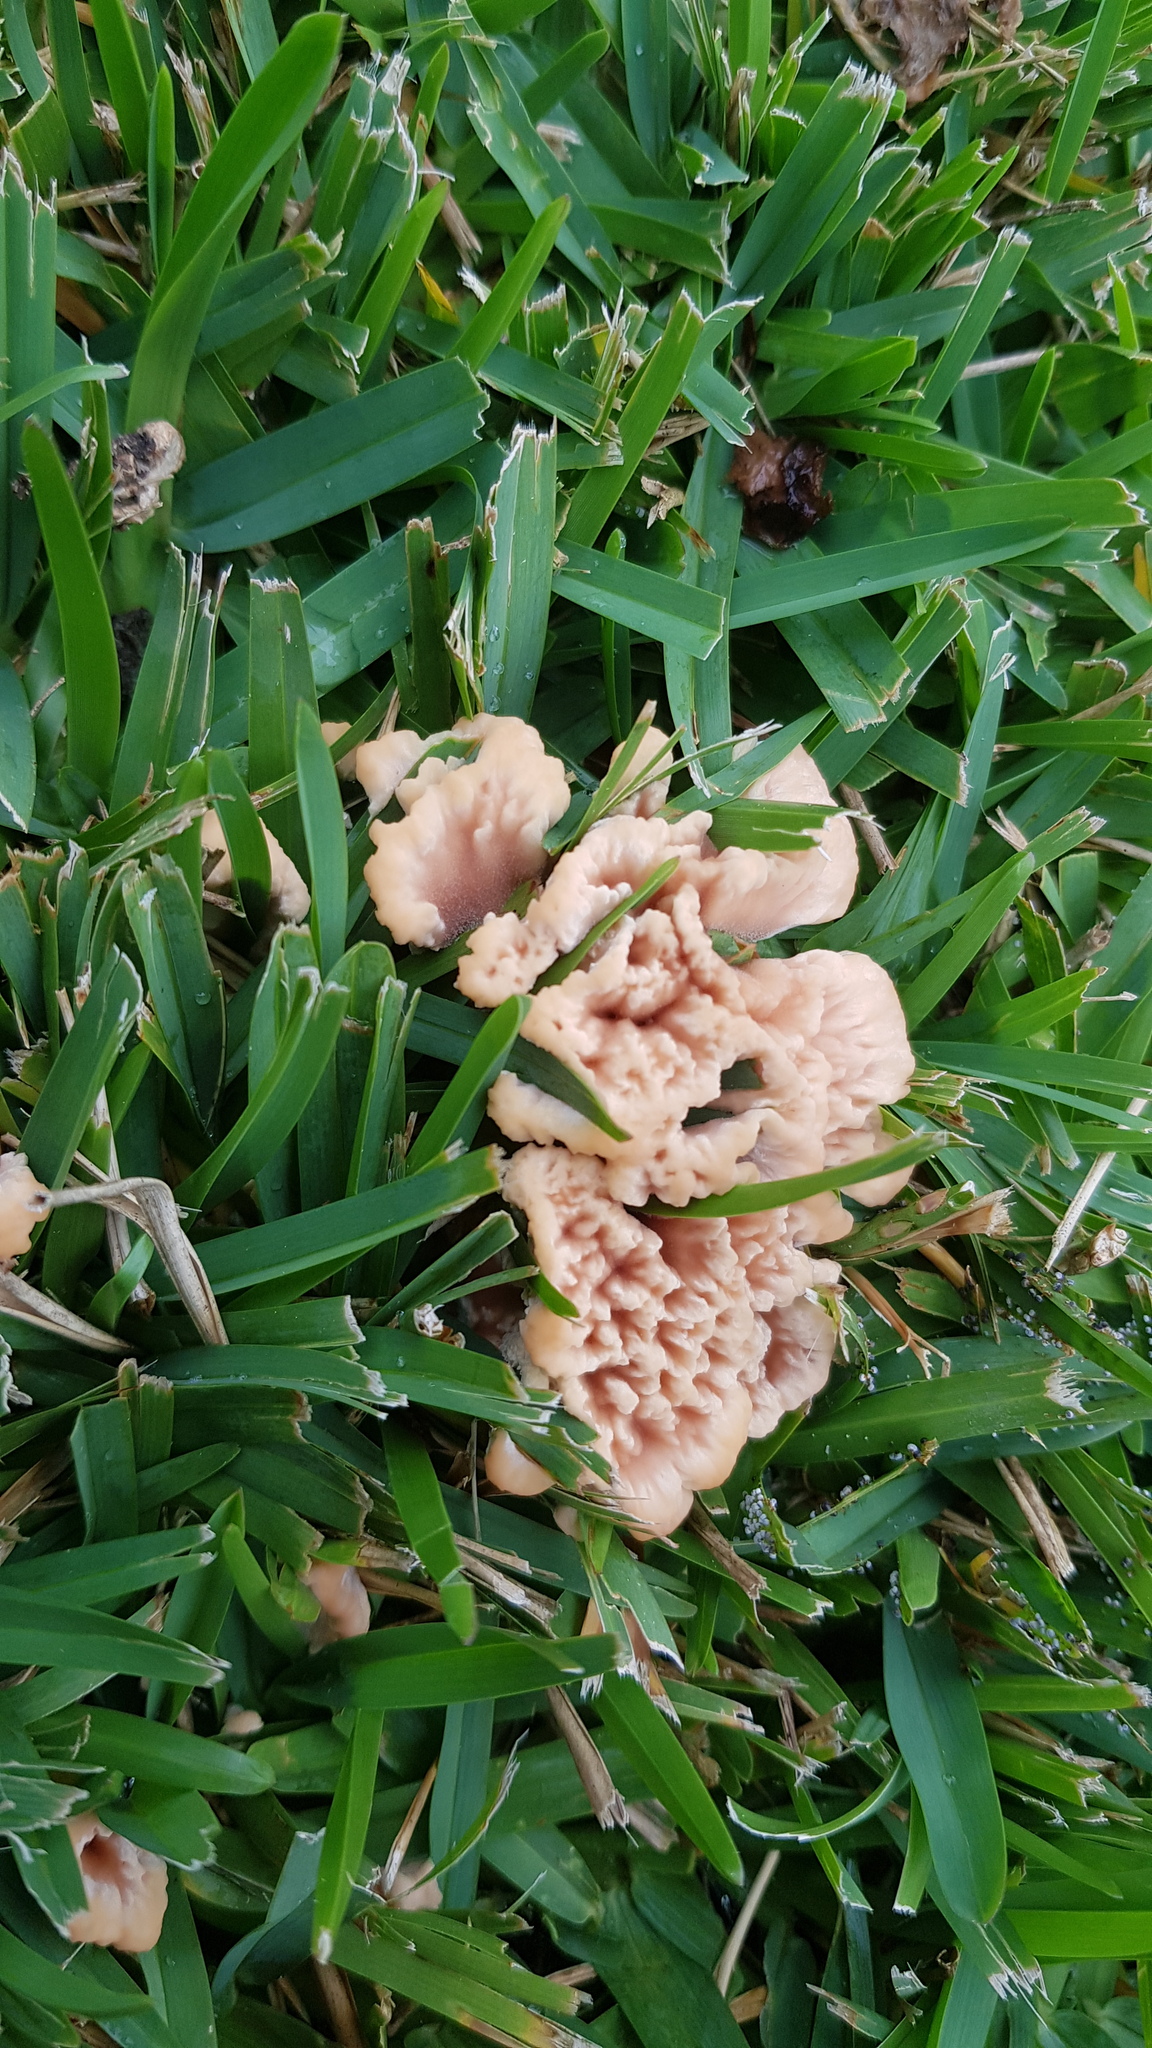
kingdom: Fungi
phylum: Basidiomycota
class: Agaricomycetes
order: Polyporales
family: Podoscyphaceae
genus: Abortiporus
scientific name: Abortiporus biennis
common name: Blushing rosette
